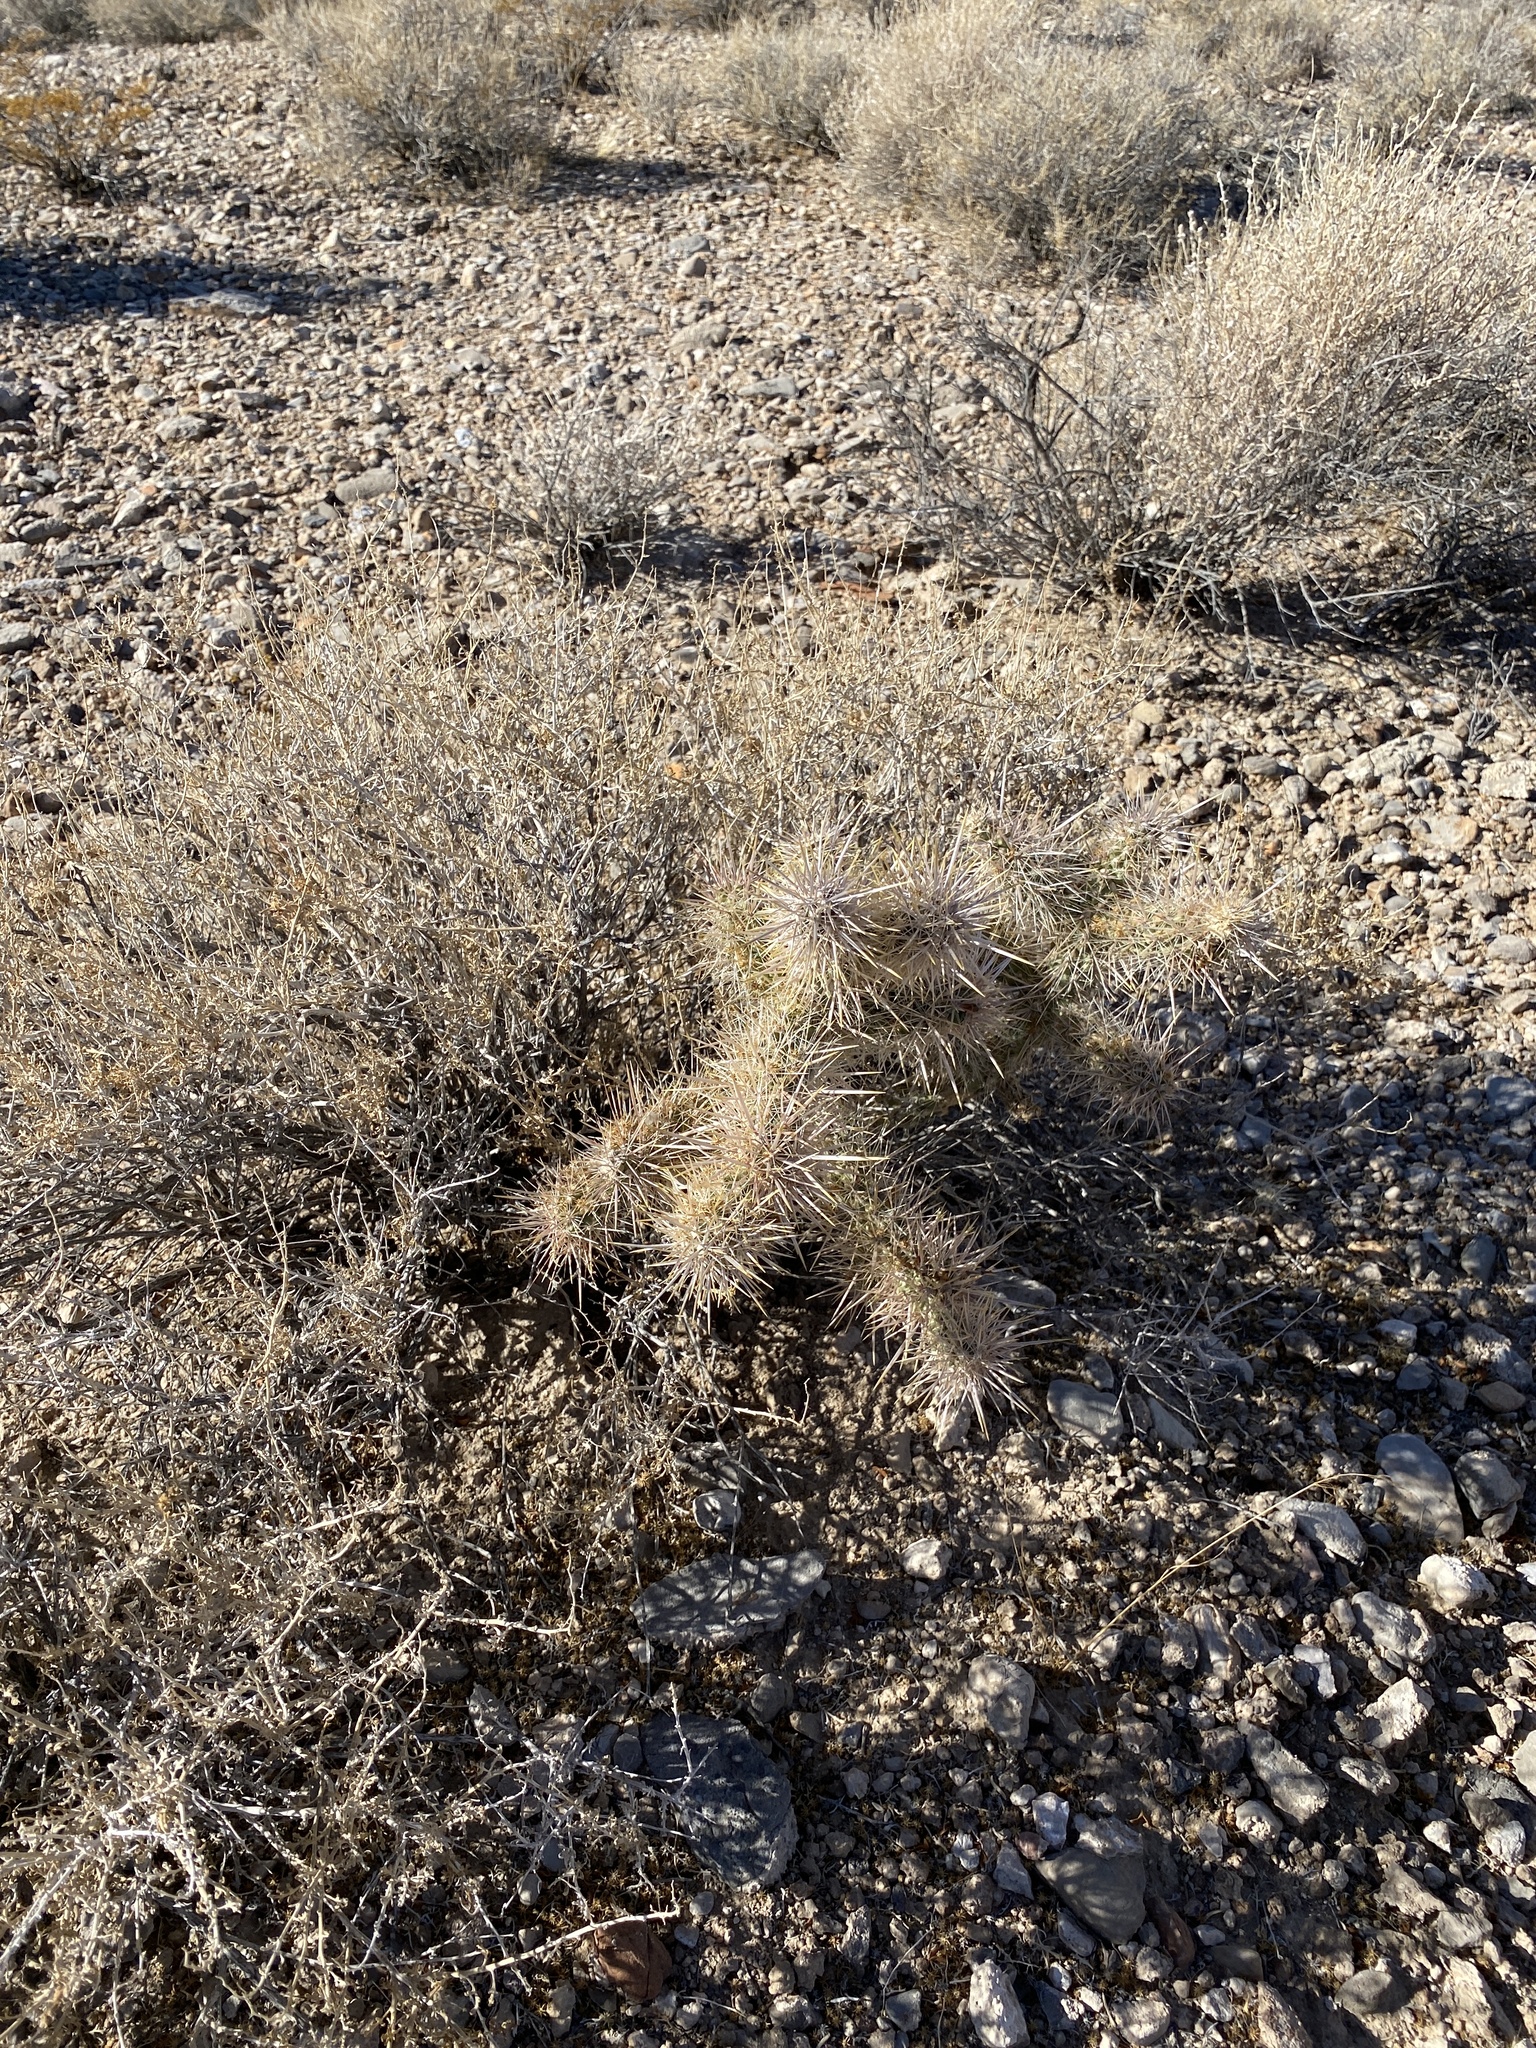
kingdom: Plantae
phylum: Tracheophyta
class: Magnoliopsida
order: Caryophyllales
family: Cactaceae
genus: Cylindropuntia
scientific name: Cylindropuntia echinocarpa
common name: Ground cholla
